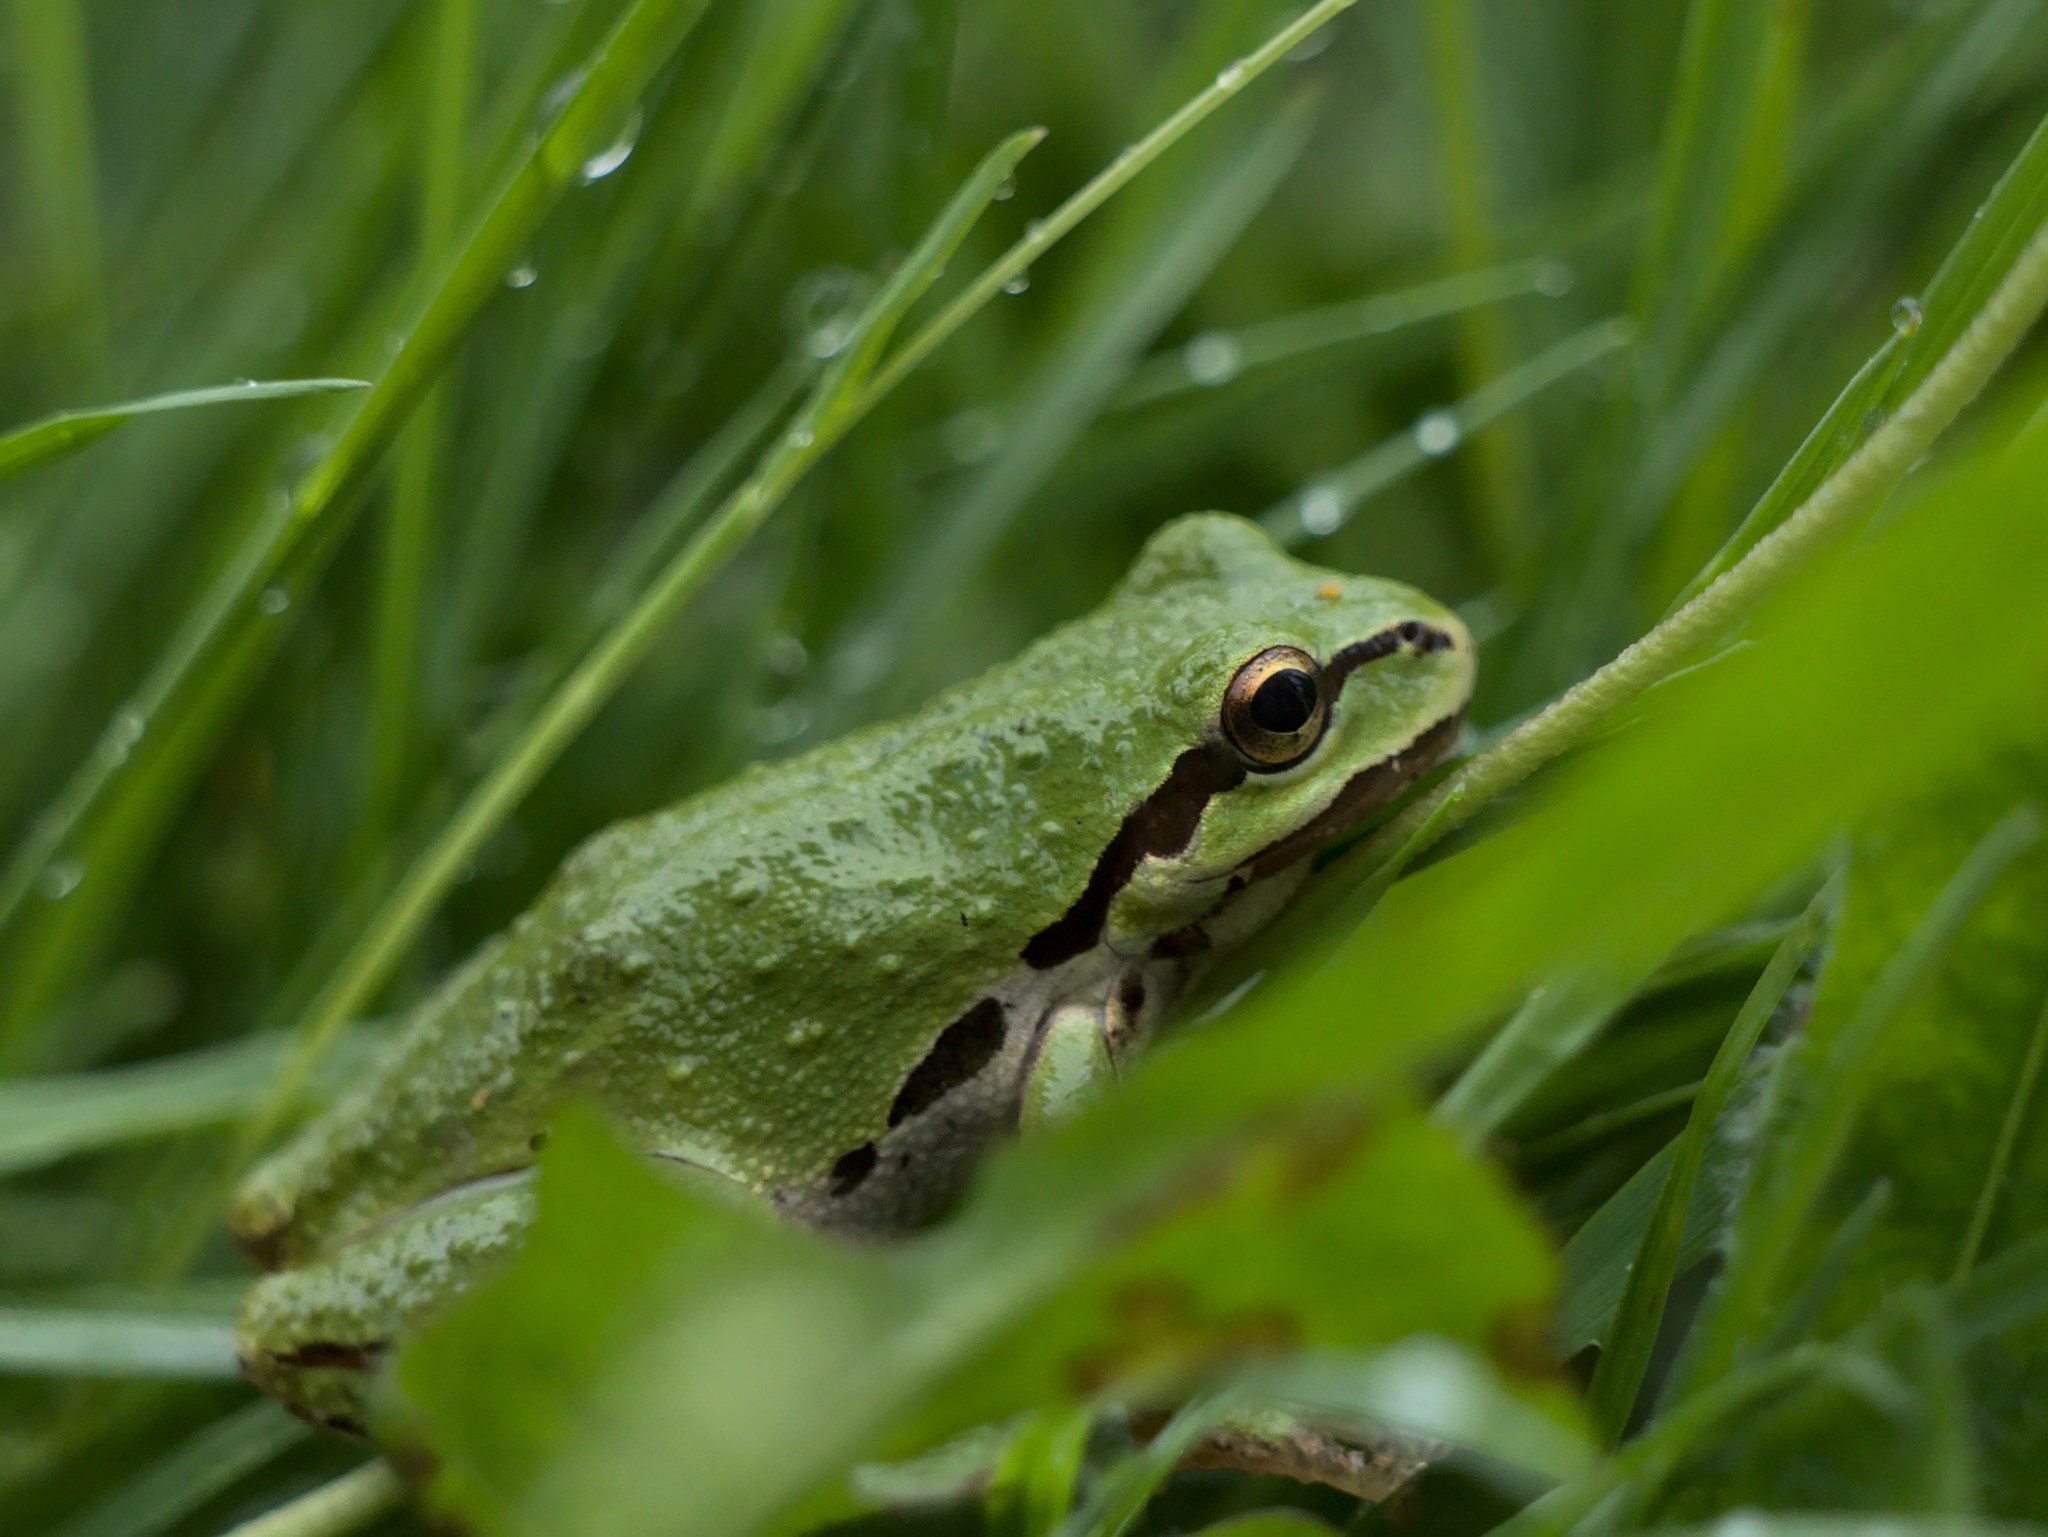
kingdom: Animalia
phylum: Chordata
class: Amphibia
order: Anura
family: Hylidae
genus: Pseudacris
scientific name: Pseudacris regilla
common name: Pacific chorus frog
